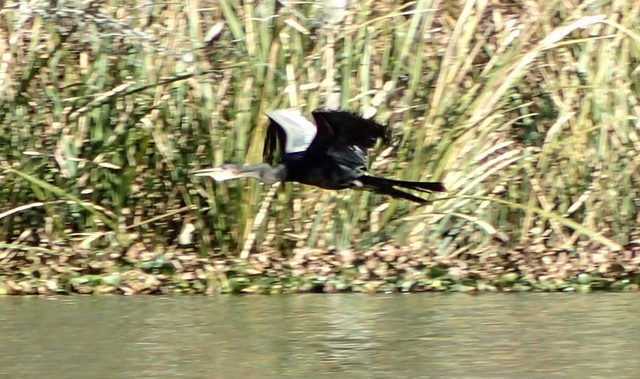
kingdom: Animalia
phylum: Chordata
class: Aves
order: Suliformes
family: Anhingidae
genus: Anhinga
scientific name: Anhinga anhinga
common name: Anhinga
